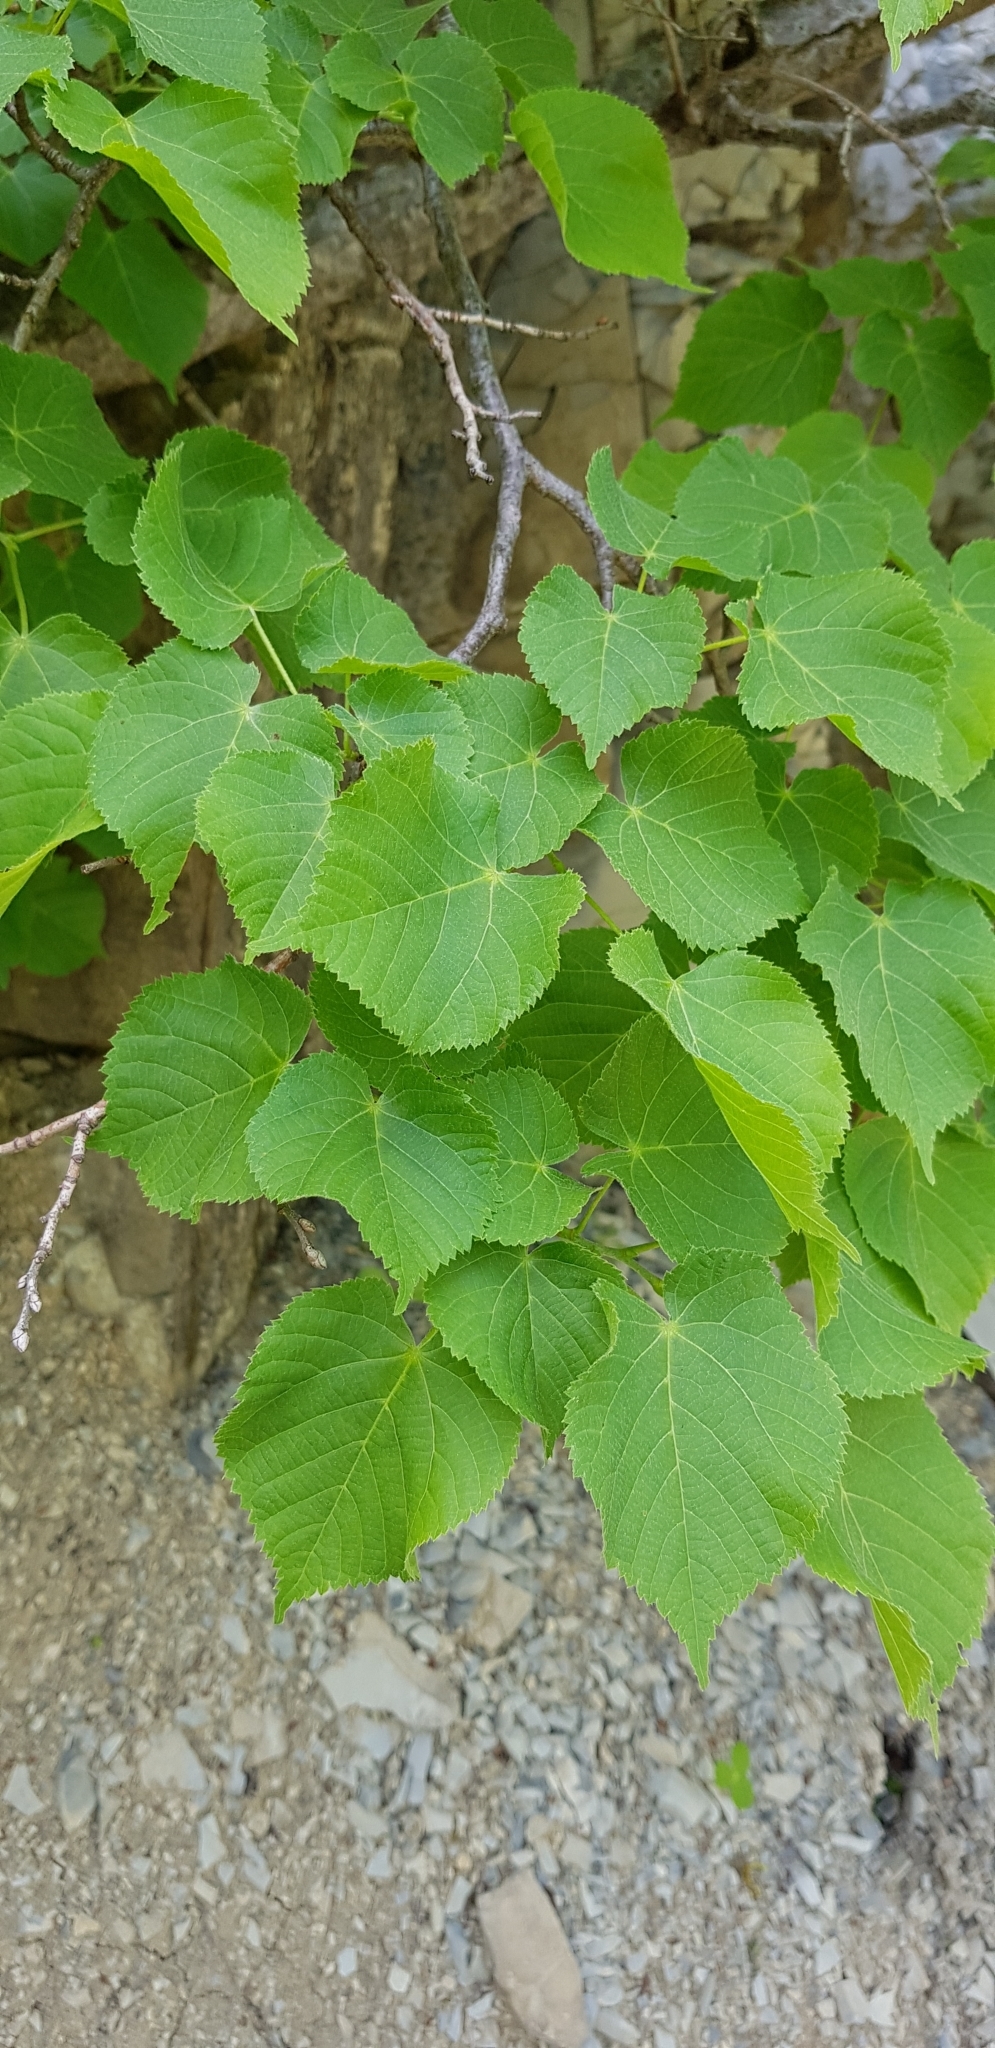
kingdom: Plantae
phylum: Tracheophyta
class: Magnoliopsida
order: Malvales
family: Malvaceae
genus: Tilia
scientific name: Tilia
